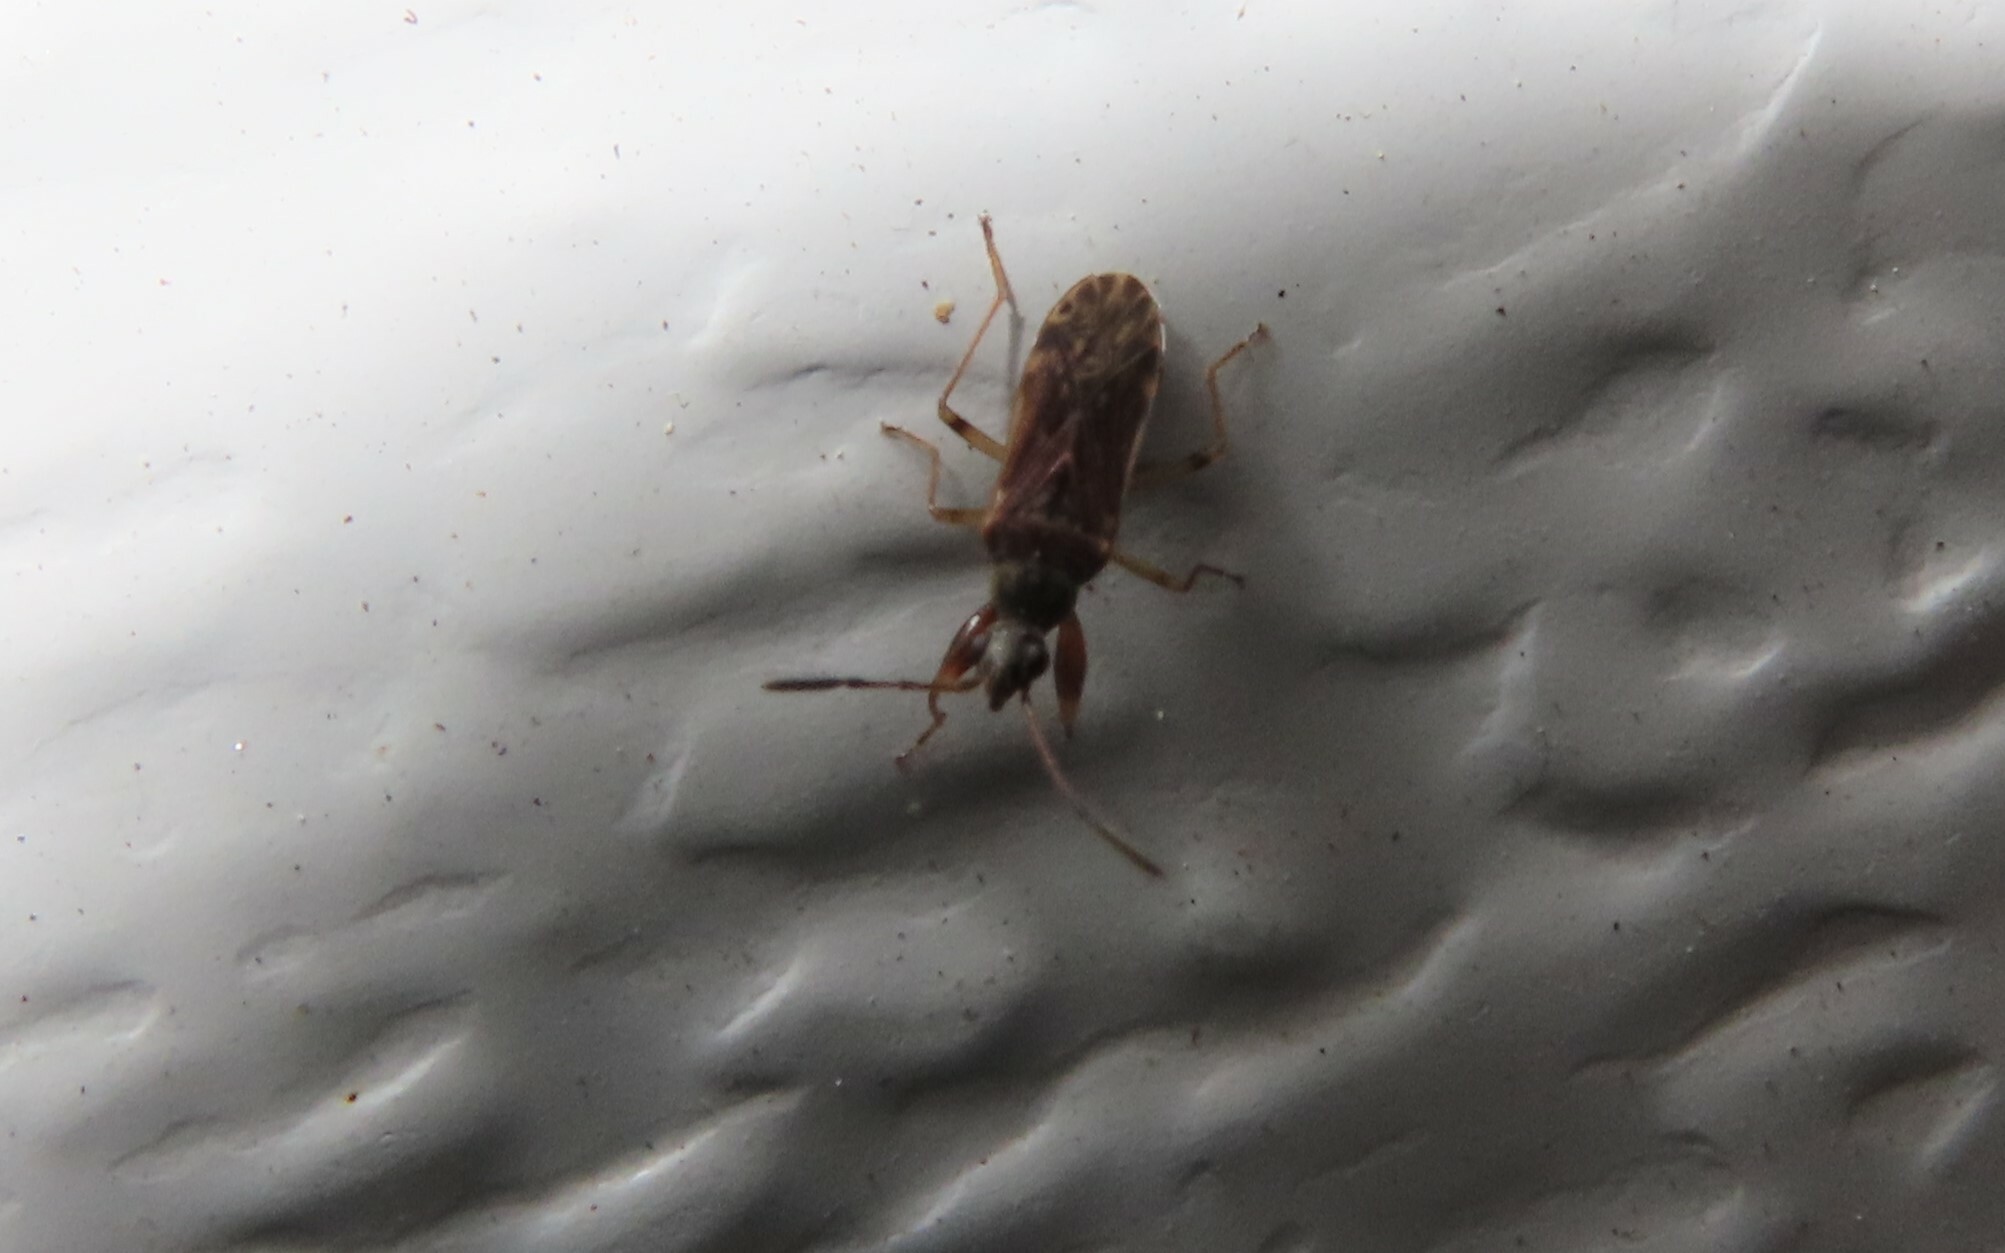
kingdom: Animalia
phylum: Arthropoda
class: Insecta
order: Hemiptera
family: Rhyparochromidae
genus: Heraeus
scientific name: Heraeus plebejus
